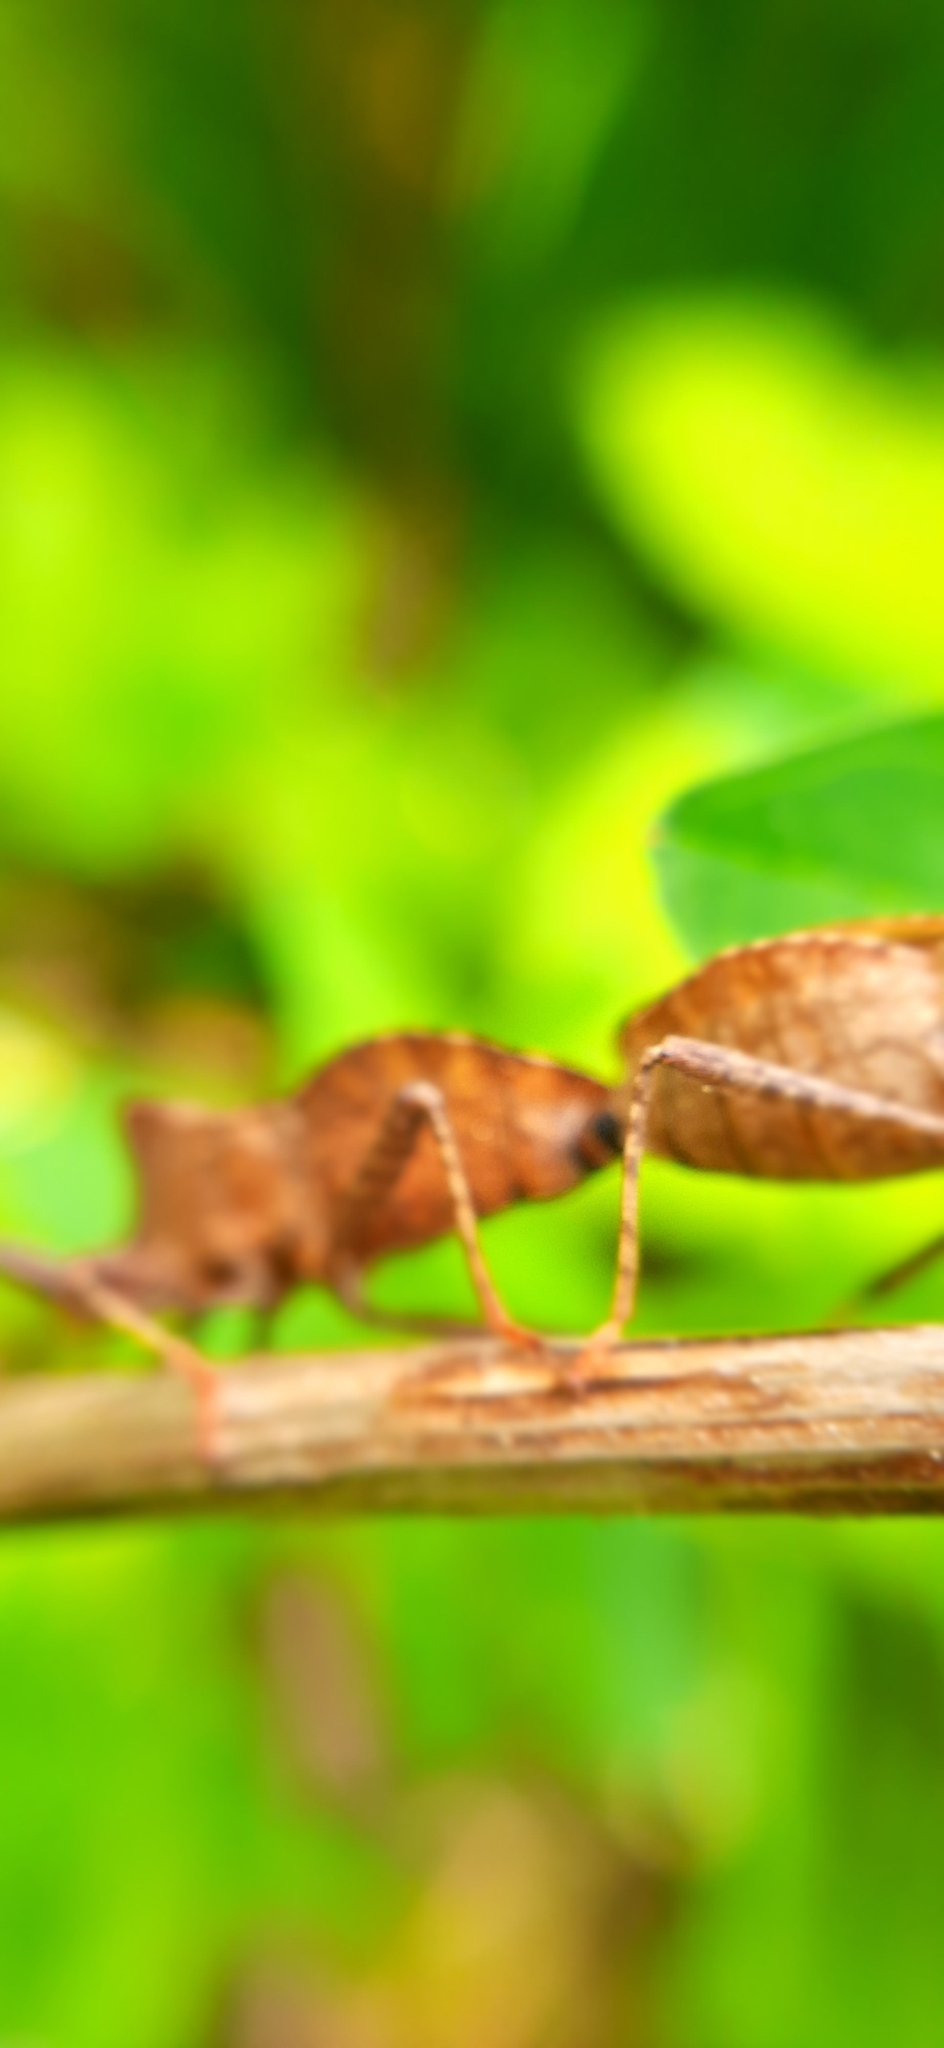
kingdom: Animalia
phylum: Arthropoda
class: Insecta
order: Hemiptera
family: Coreidae
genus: Coreus
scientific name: Coreus marginatus
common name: Dock bug
